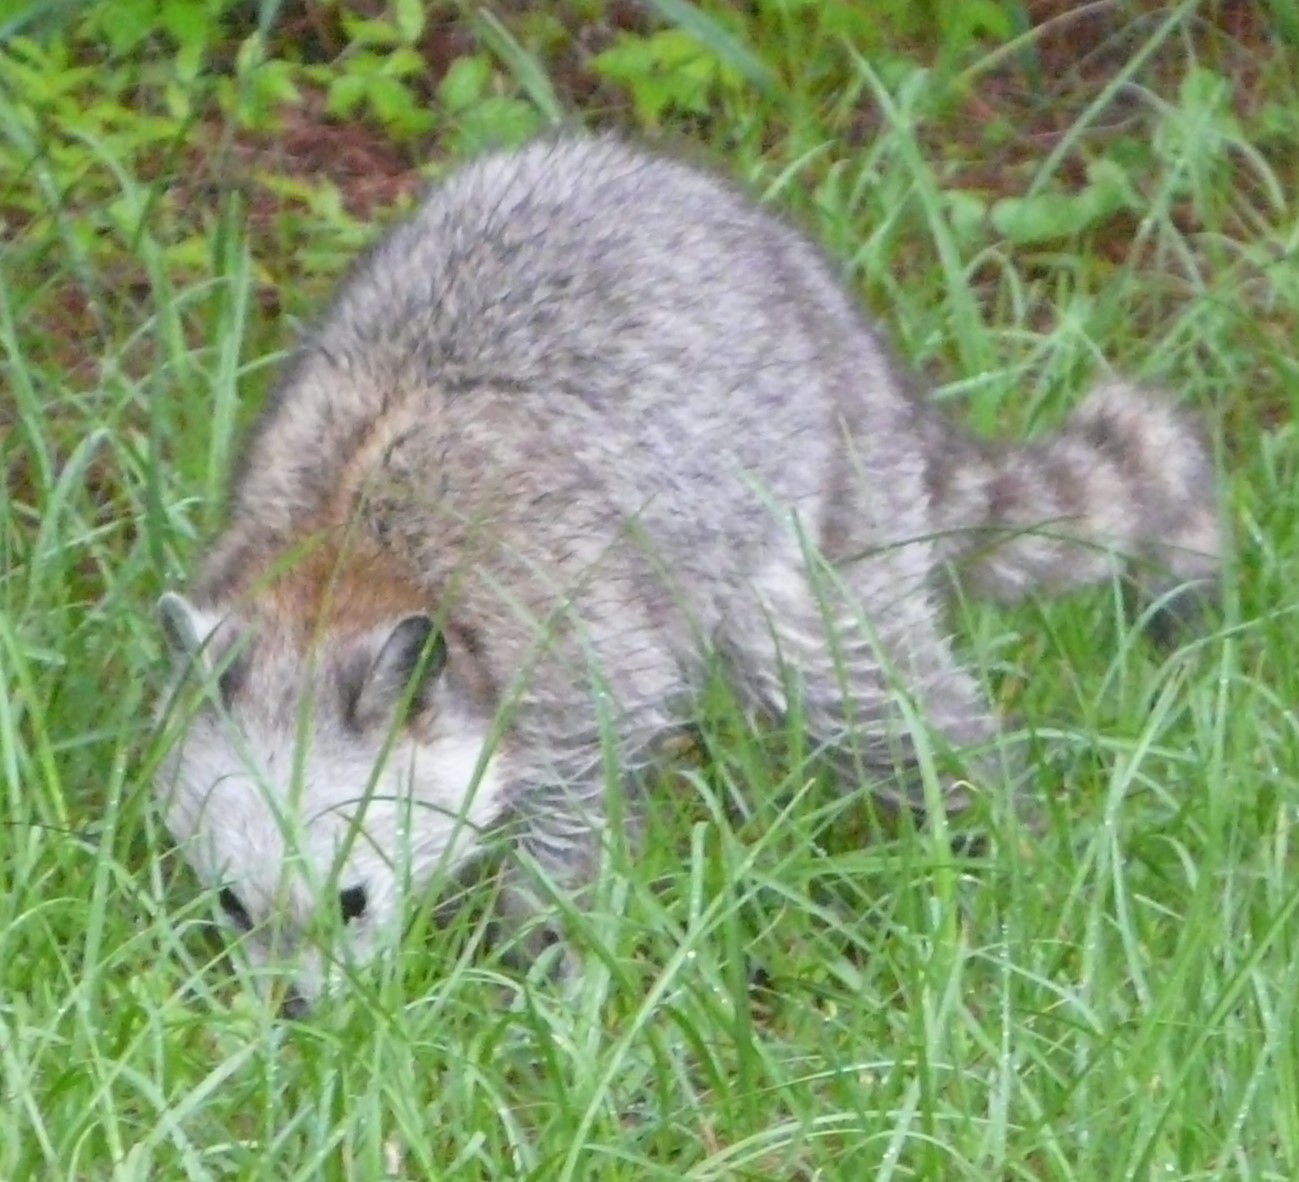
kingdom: Animalia
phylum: Chordata
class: Mammalia
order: Carnivora
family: Procyonidae
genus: Procyon
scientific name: Procyon lotor
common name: Raccoon
